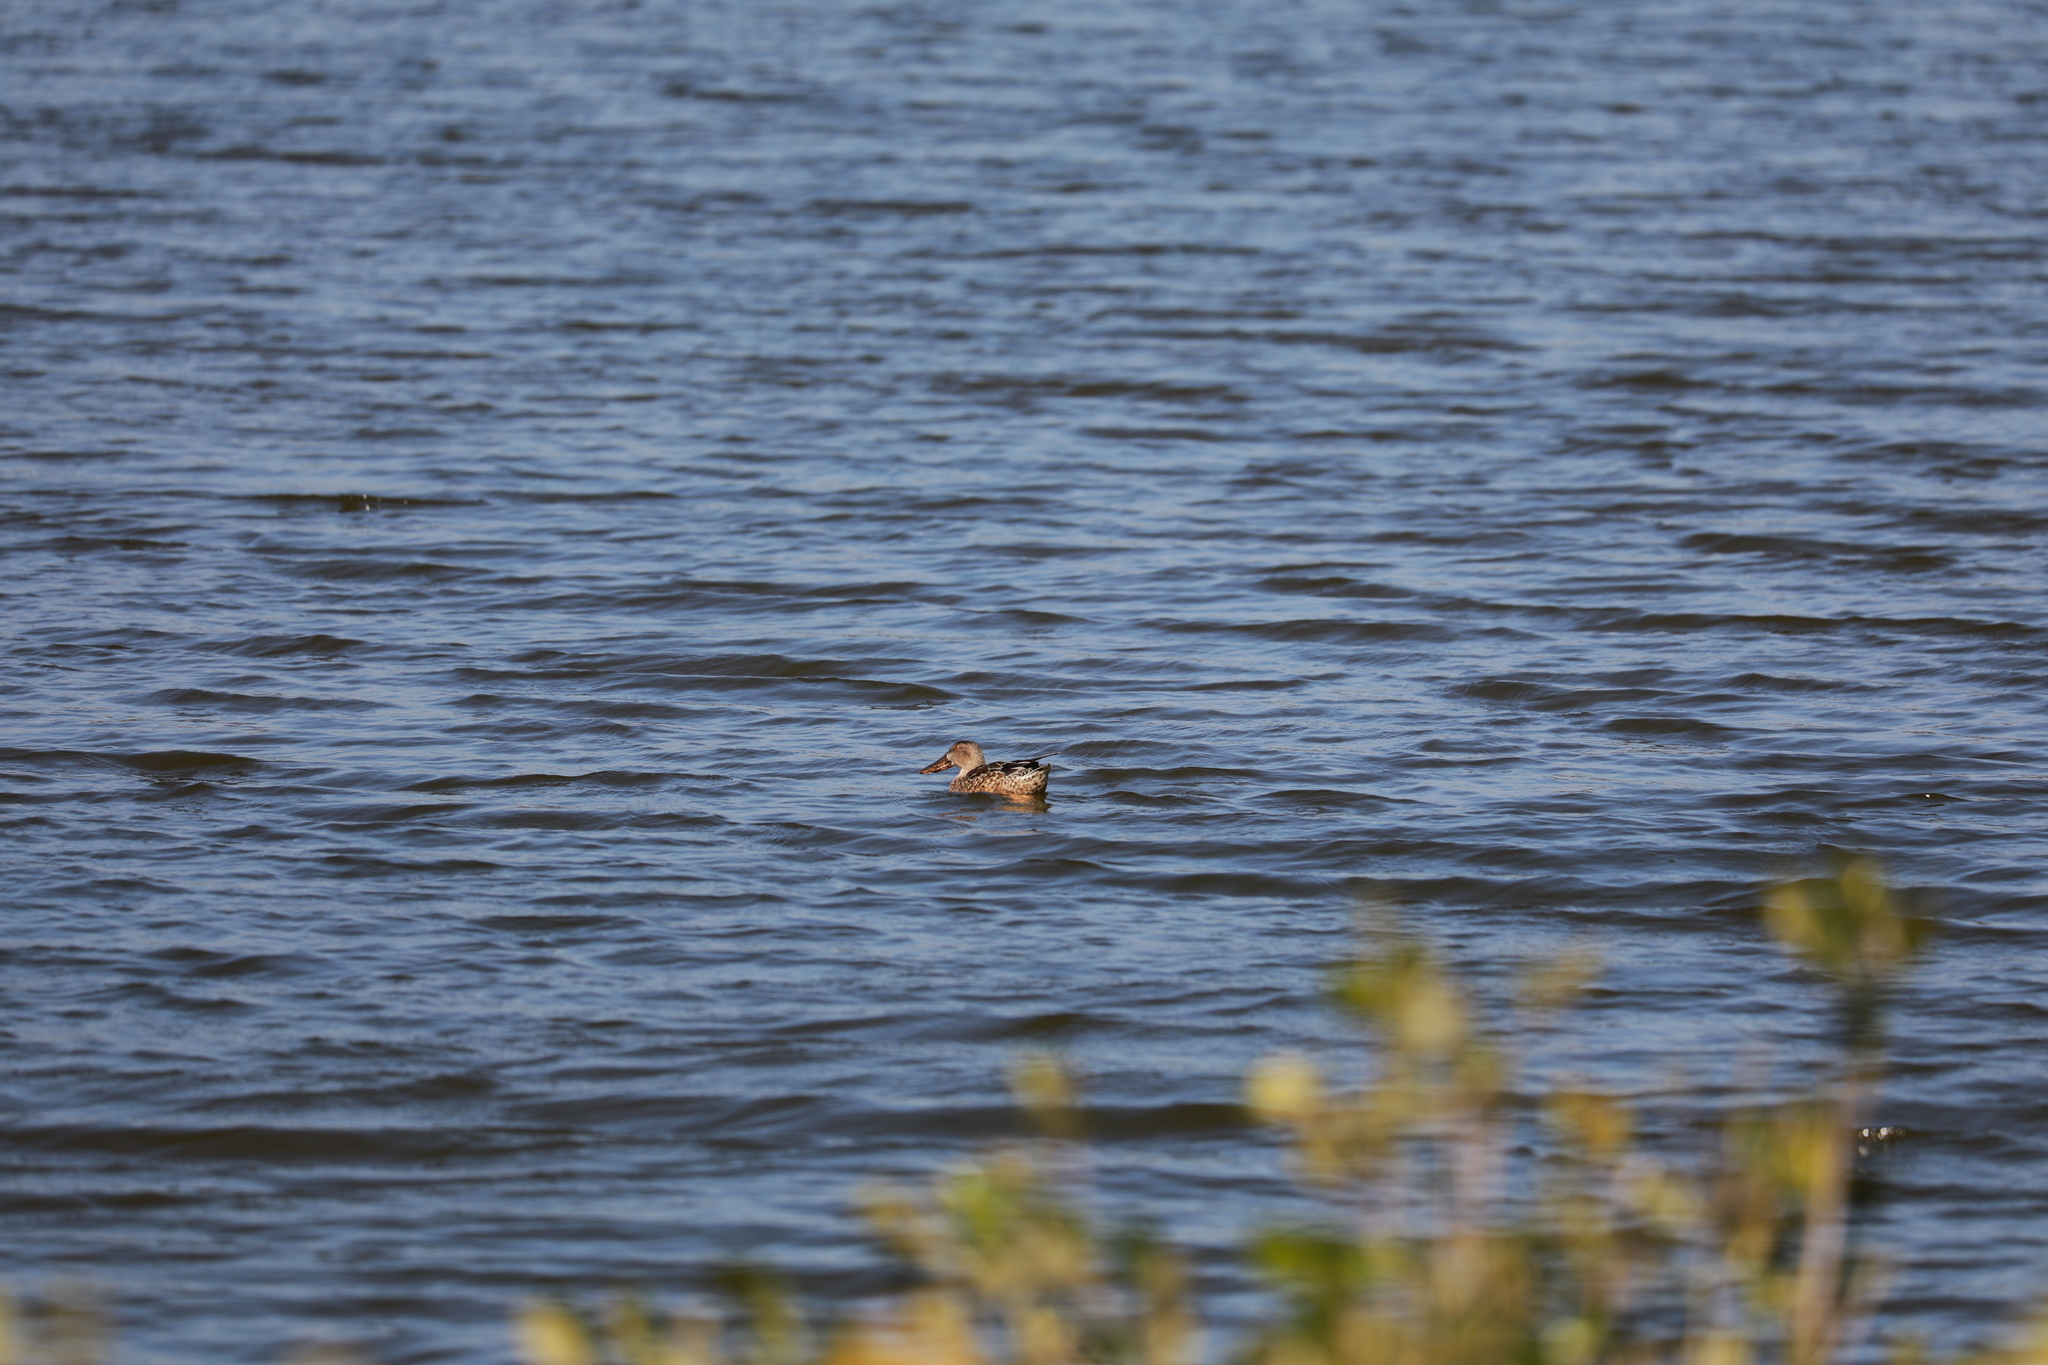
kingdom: Animalia
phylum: Chordata
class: Aves
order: Anseriformes
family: Anatidae
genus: Spatula
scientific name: Spatula clypeata
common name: Northern shoveler
